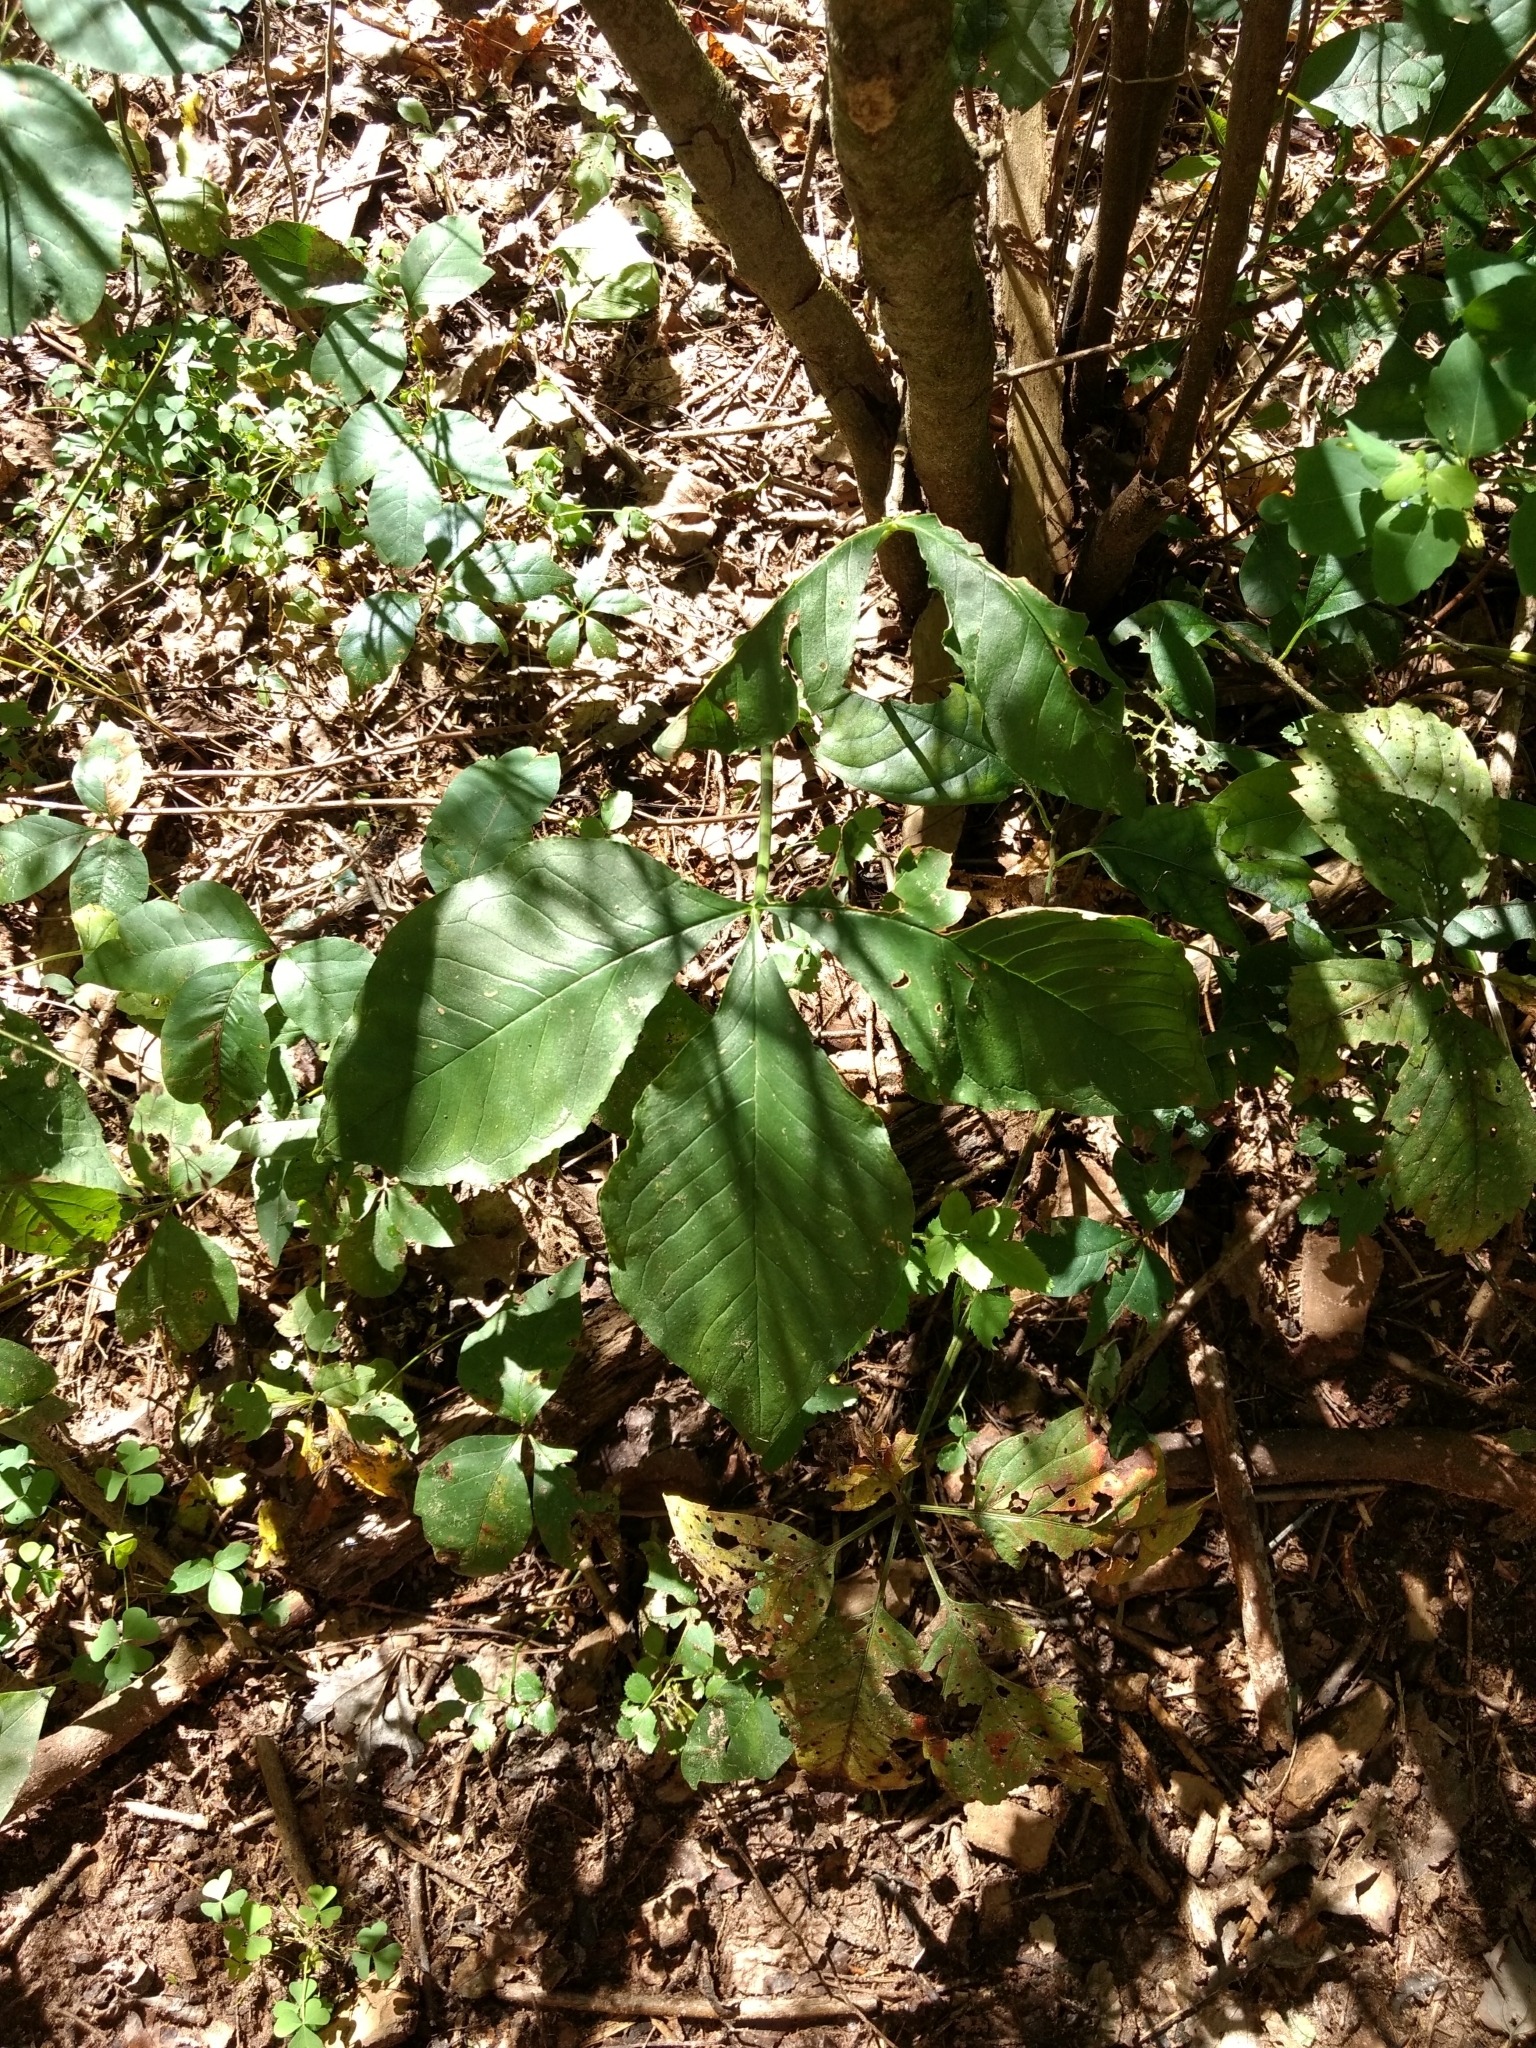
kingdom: Plantae
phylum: Tracheophyta
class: Liliopsida
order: Alismatales
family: Araceae
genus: Arisaema
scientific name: Arisaema triphyllum
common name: Jack-in-the-pulpit
